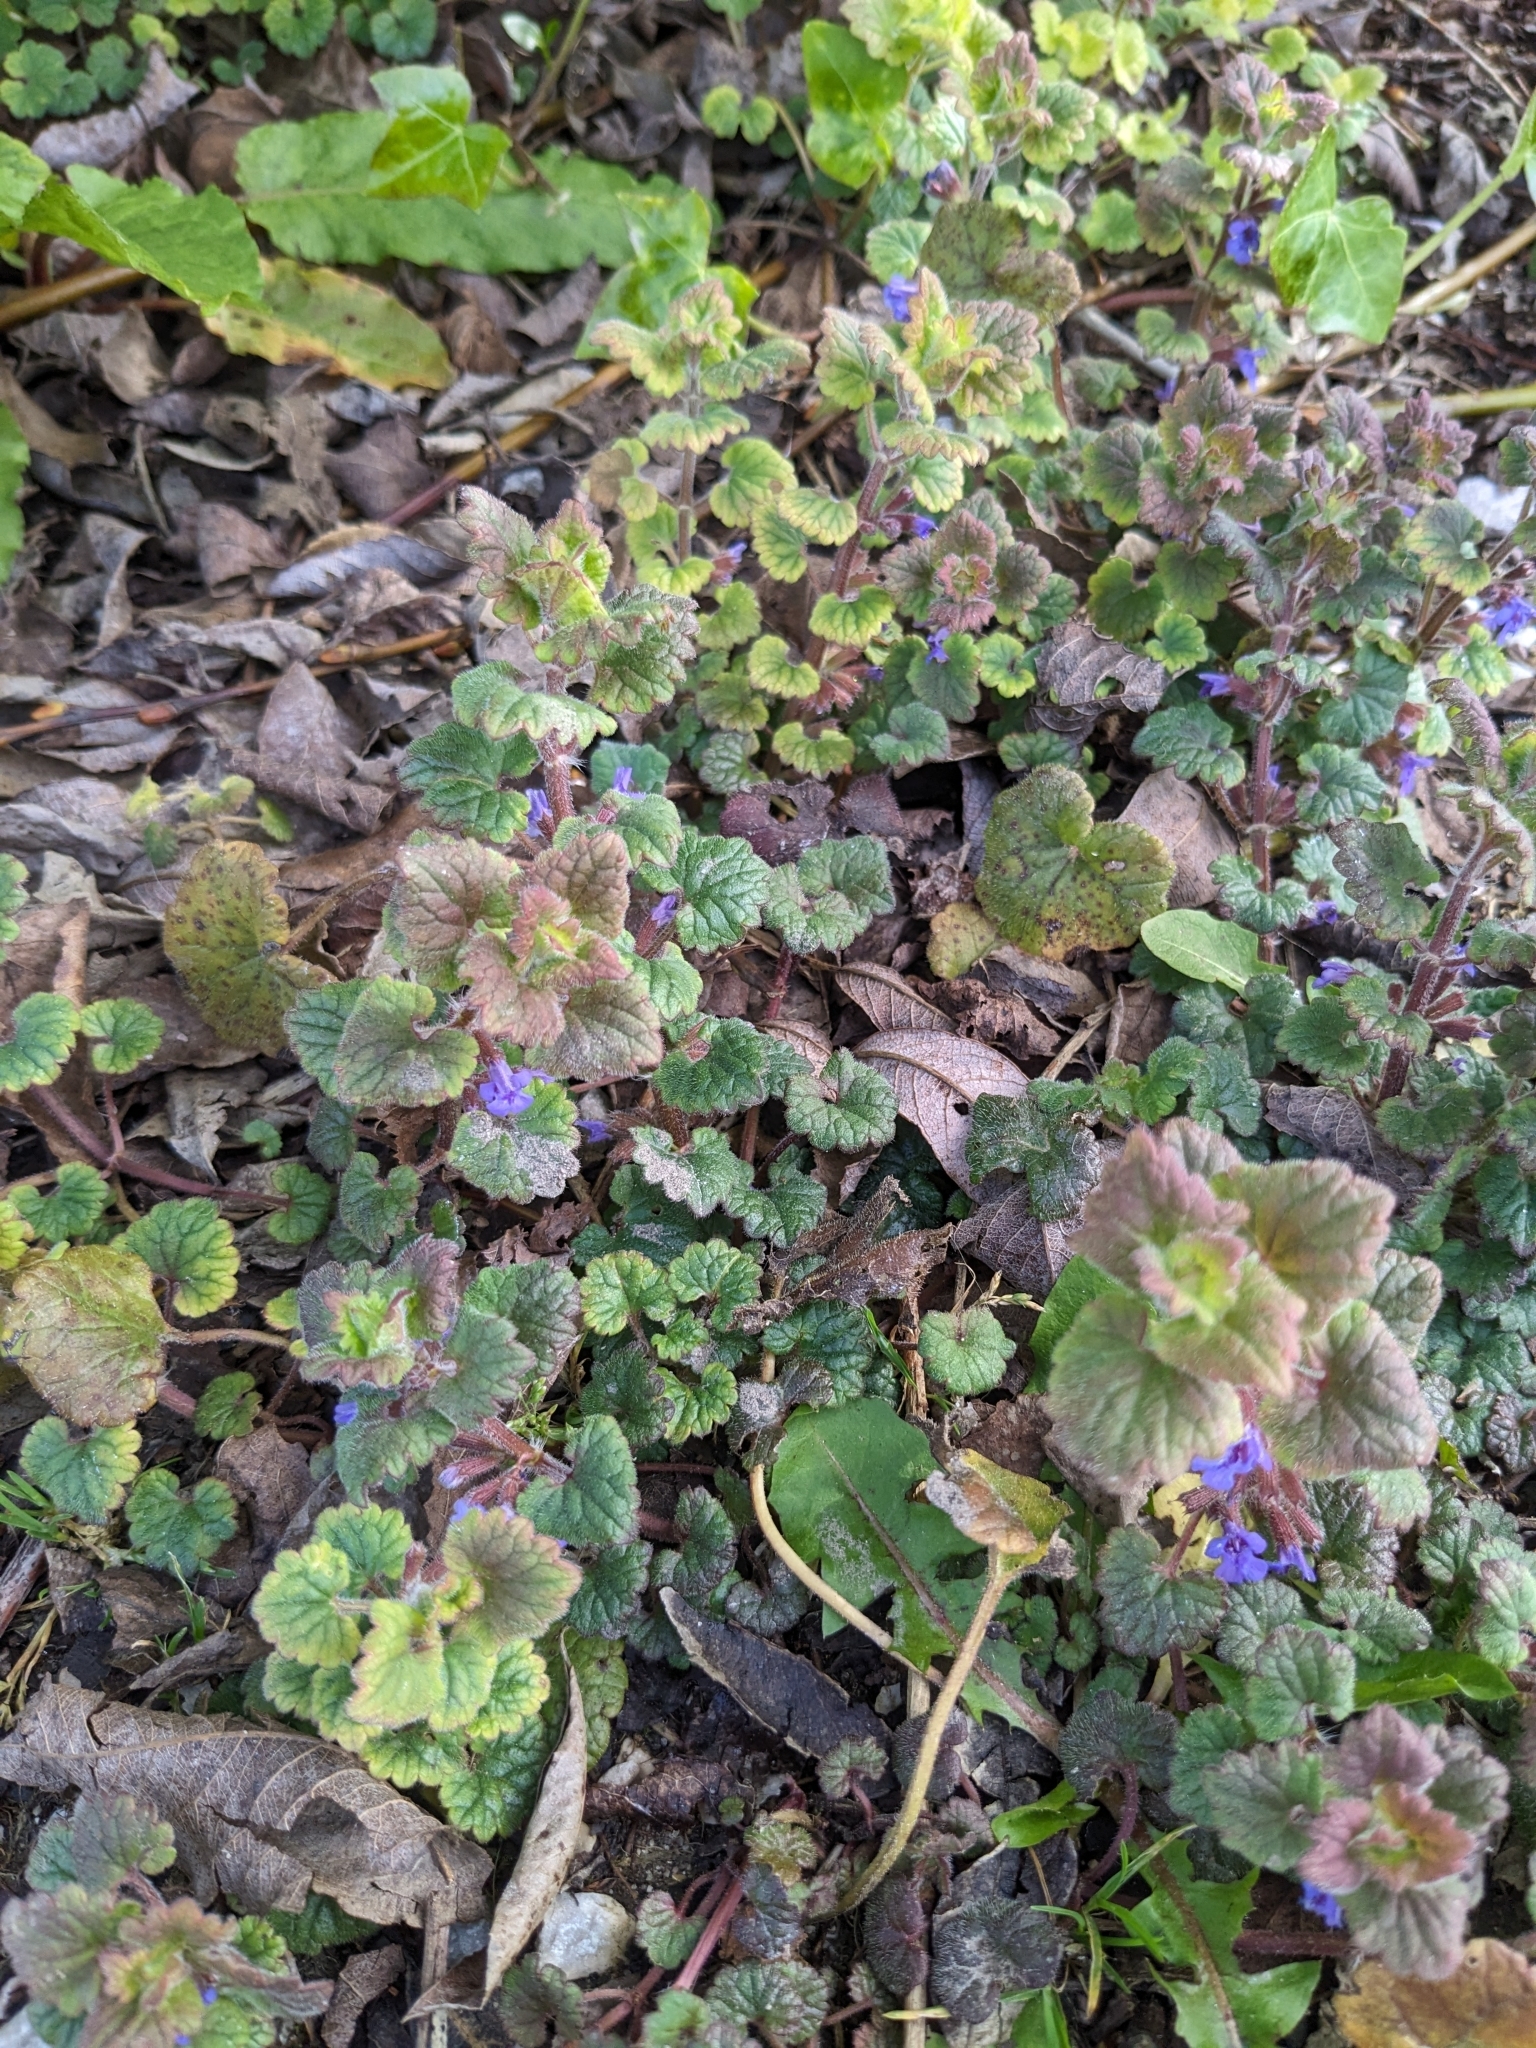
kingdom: Plantae
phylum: Tracheophyta
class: Magnoliopsida
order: Lamiales
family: Lamiaceae
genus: Glechoma
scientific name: Glechoma hederacea
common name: Ground ivy
